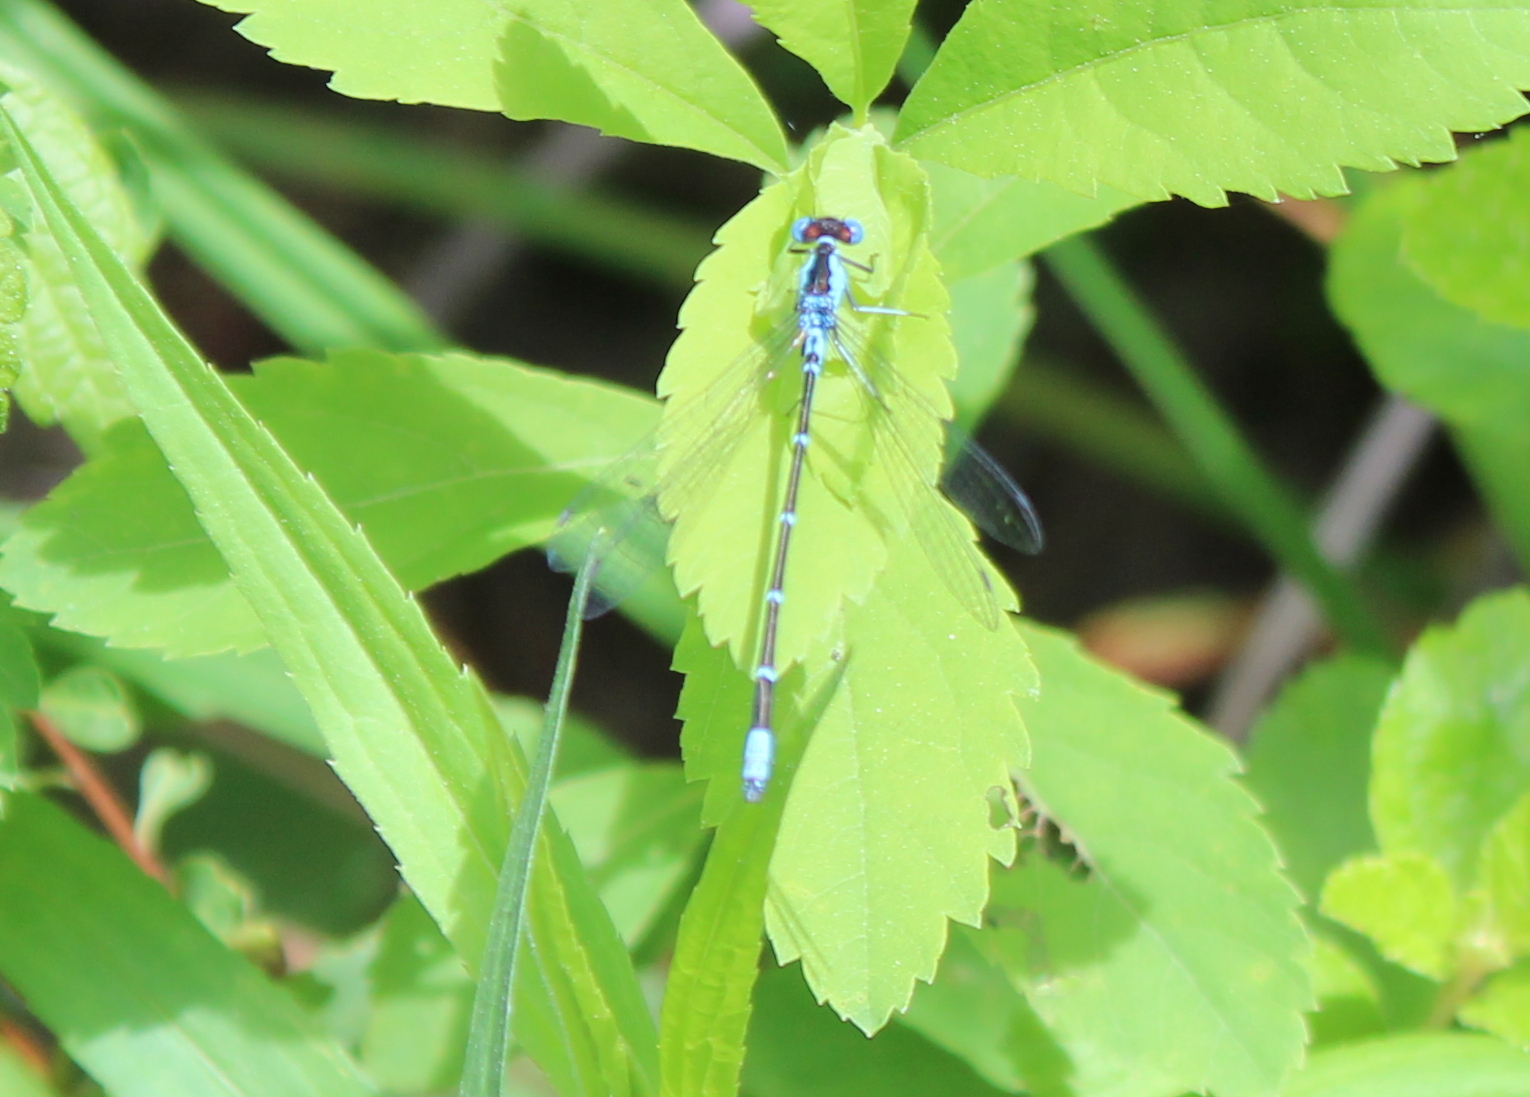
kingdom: Animalia
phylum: Arthropoda
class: Insecta
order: Odonata
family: Coenagrionidae
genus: Chromagrion
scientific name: Chromagrion conditum
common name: Aurora damsel
